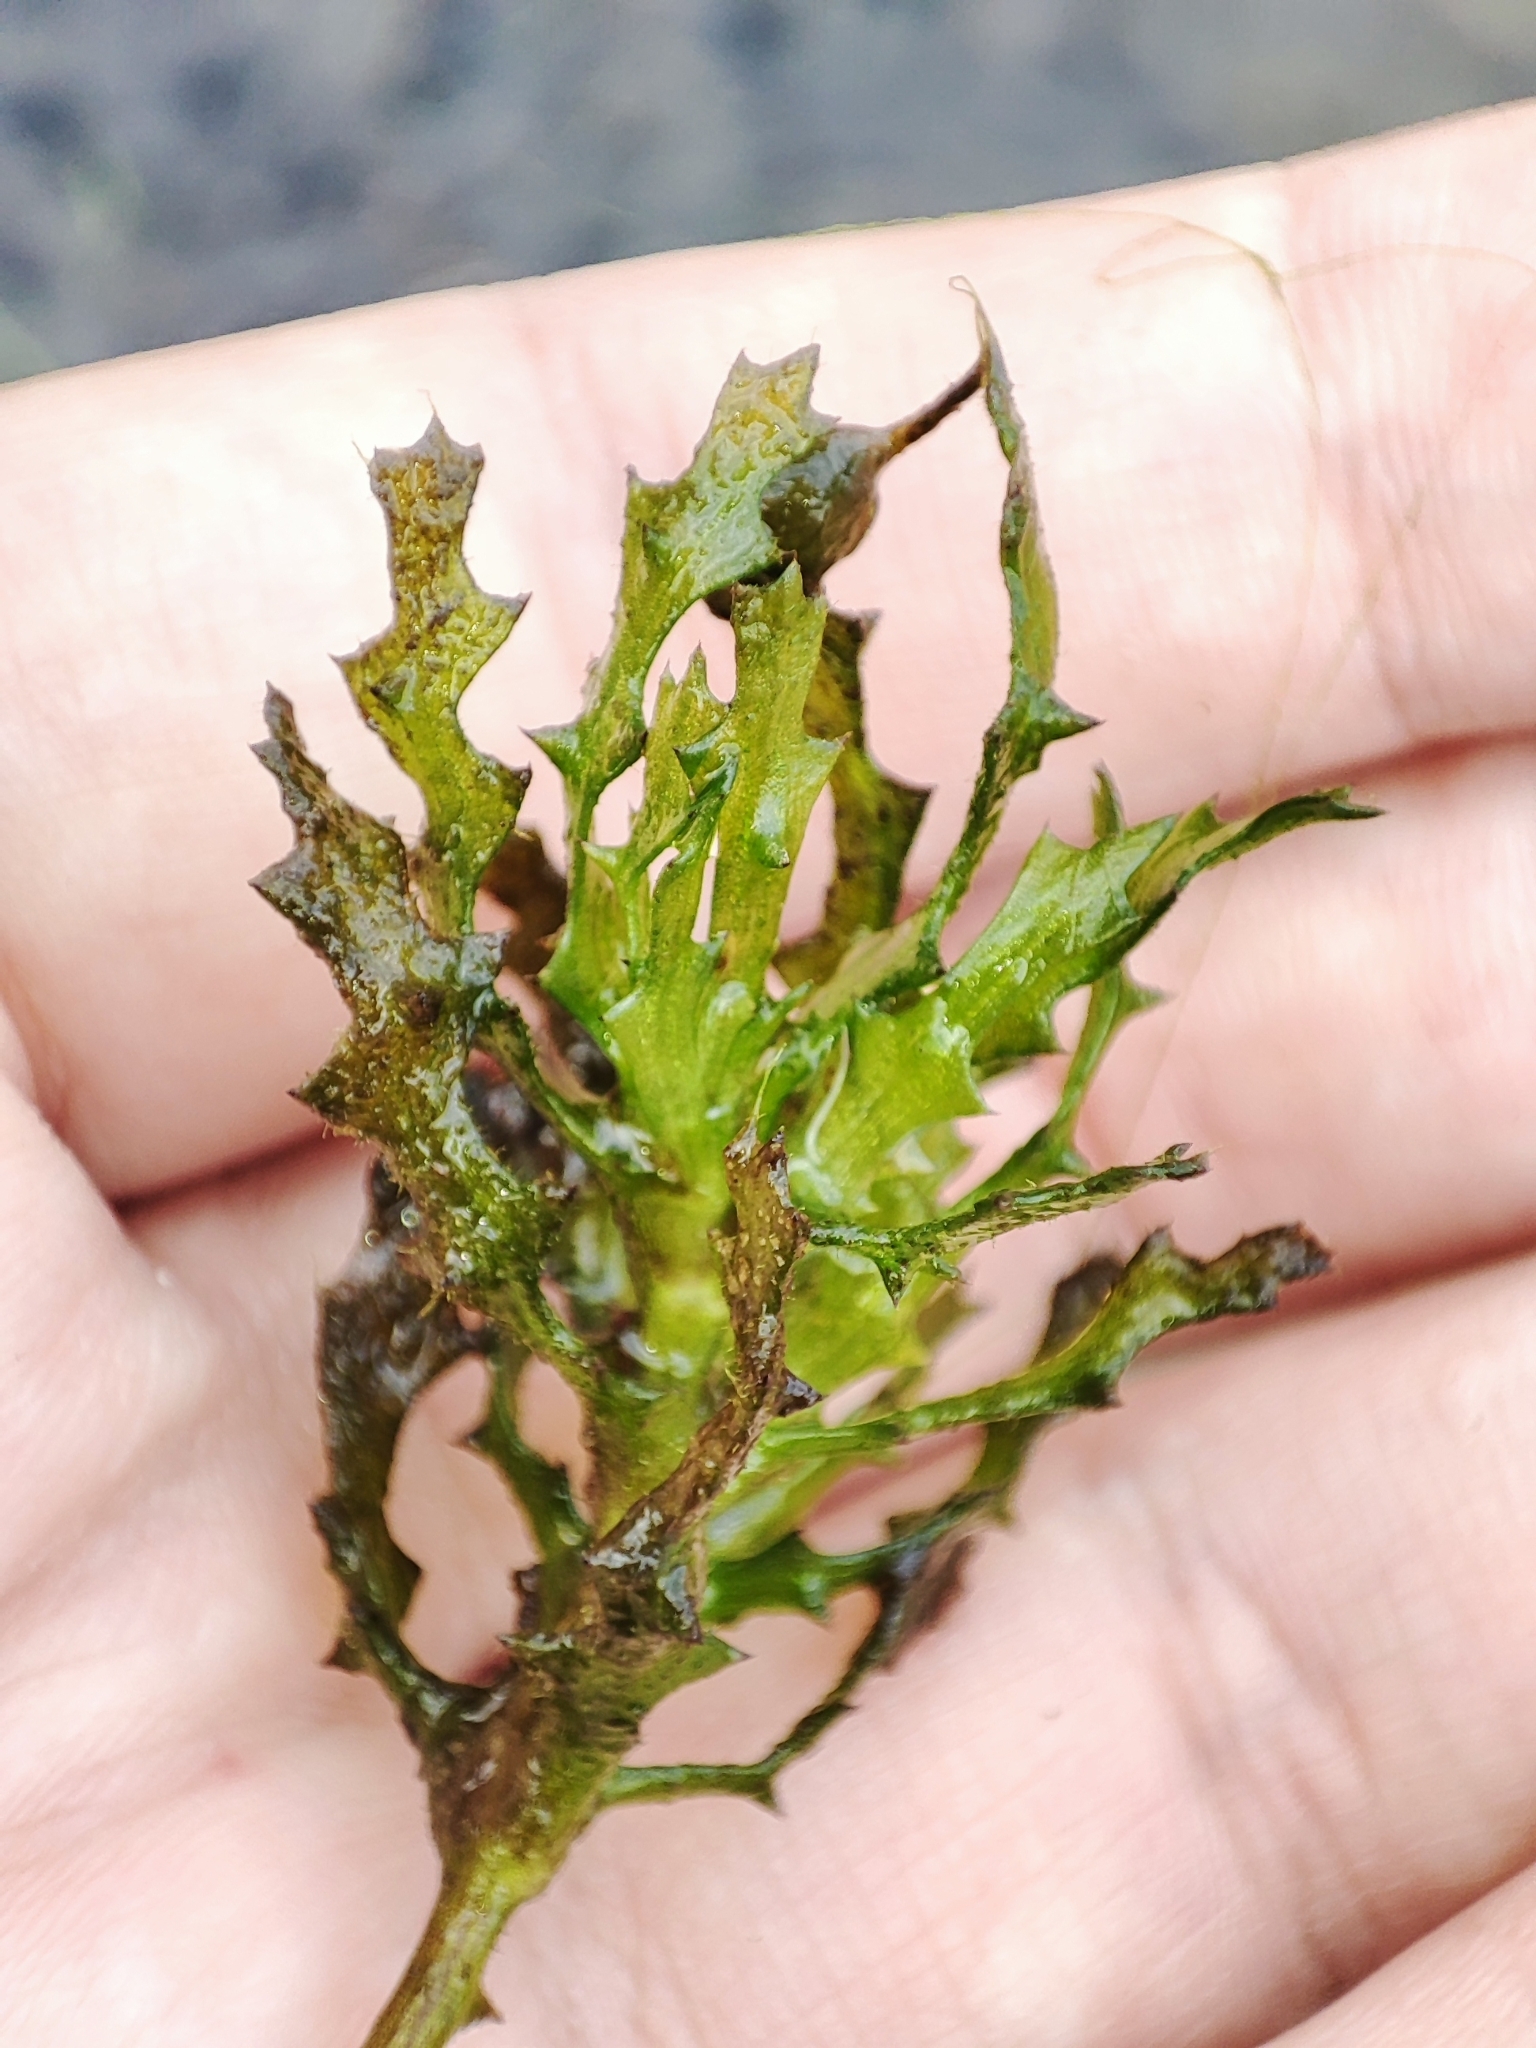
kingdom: Plantae
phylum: Tracheophyta
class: Liliopsida
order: Alismatales
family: Hydrocharitaceae
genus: Najas
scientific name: Najas marina
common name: Holly-leaved naiad
